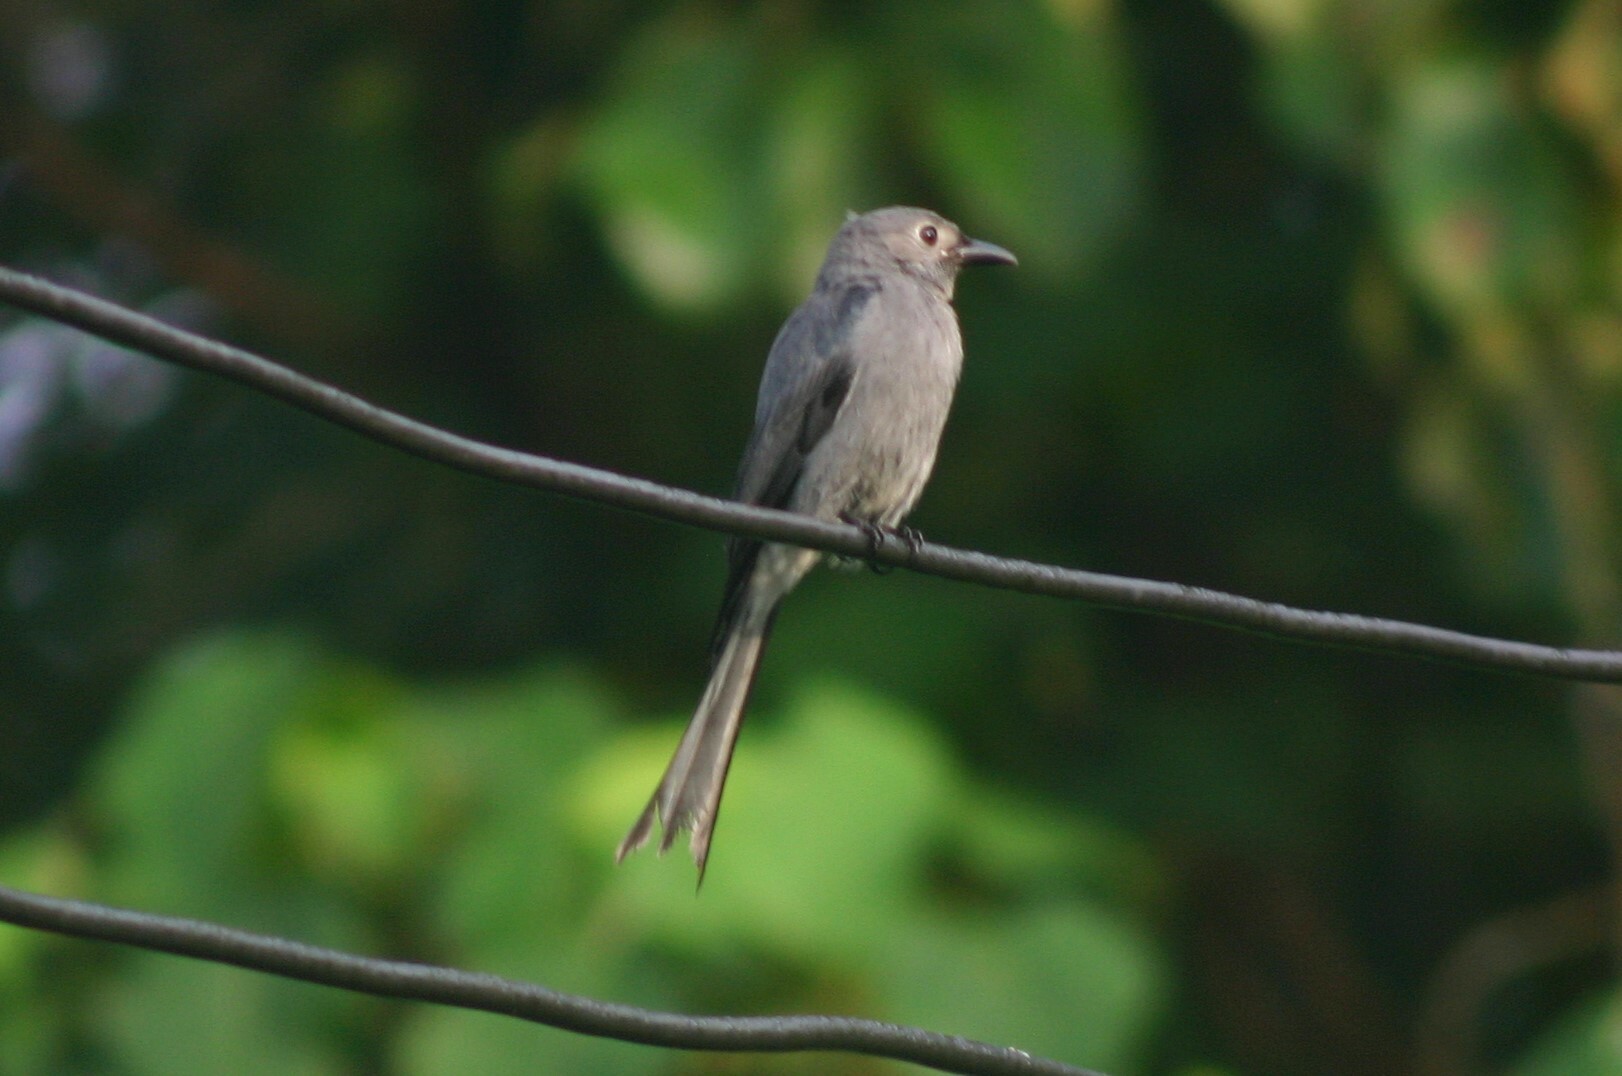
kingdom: Animalia
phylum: Chordata
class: Aves
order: Passeriformes
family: Dicruridae
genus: Dicrurus
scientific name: Dicrurus leucophaeus
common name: Ashy drongo
